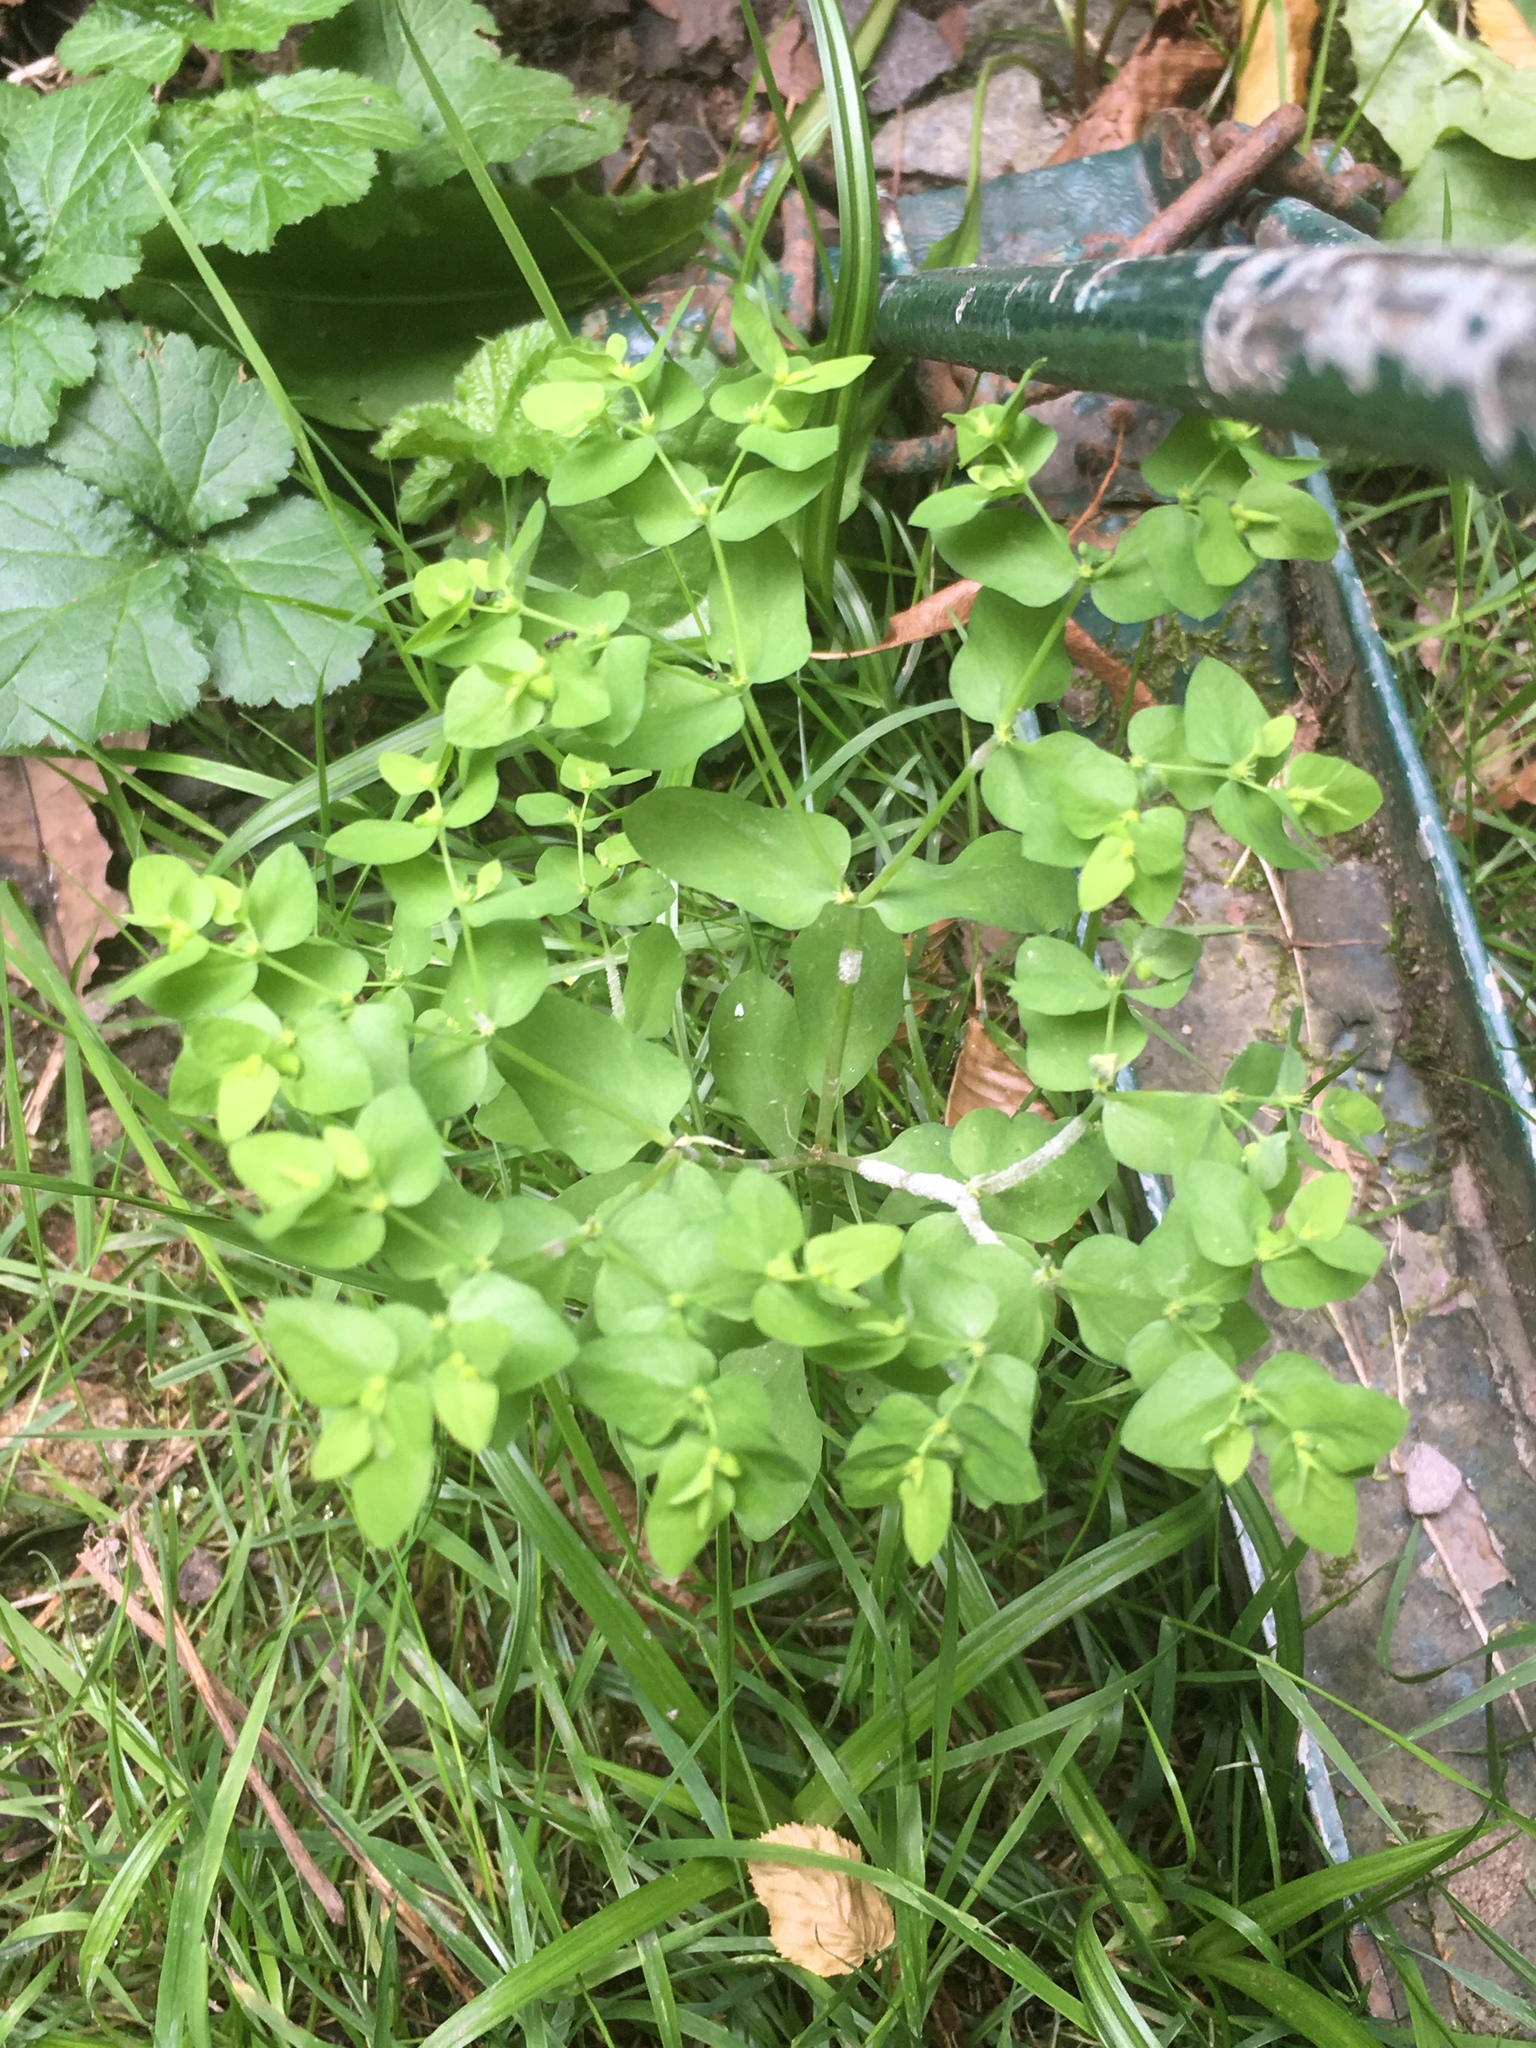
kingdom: Plantae
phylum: Tracheophyta
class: Magnoliopsida
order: Malpighiales
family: Euphorbiaceae
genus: Euphorbia
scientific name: Euphorbia peplus
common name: Petty spurge
